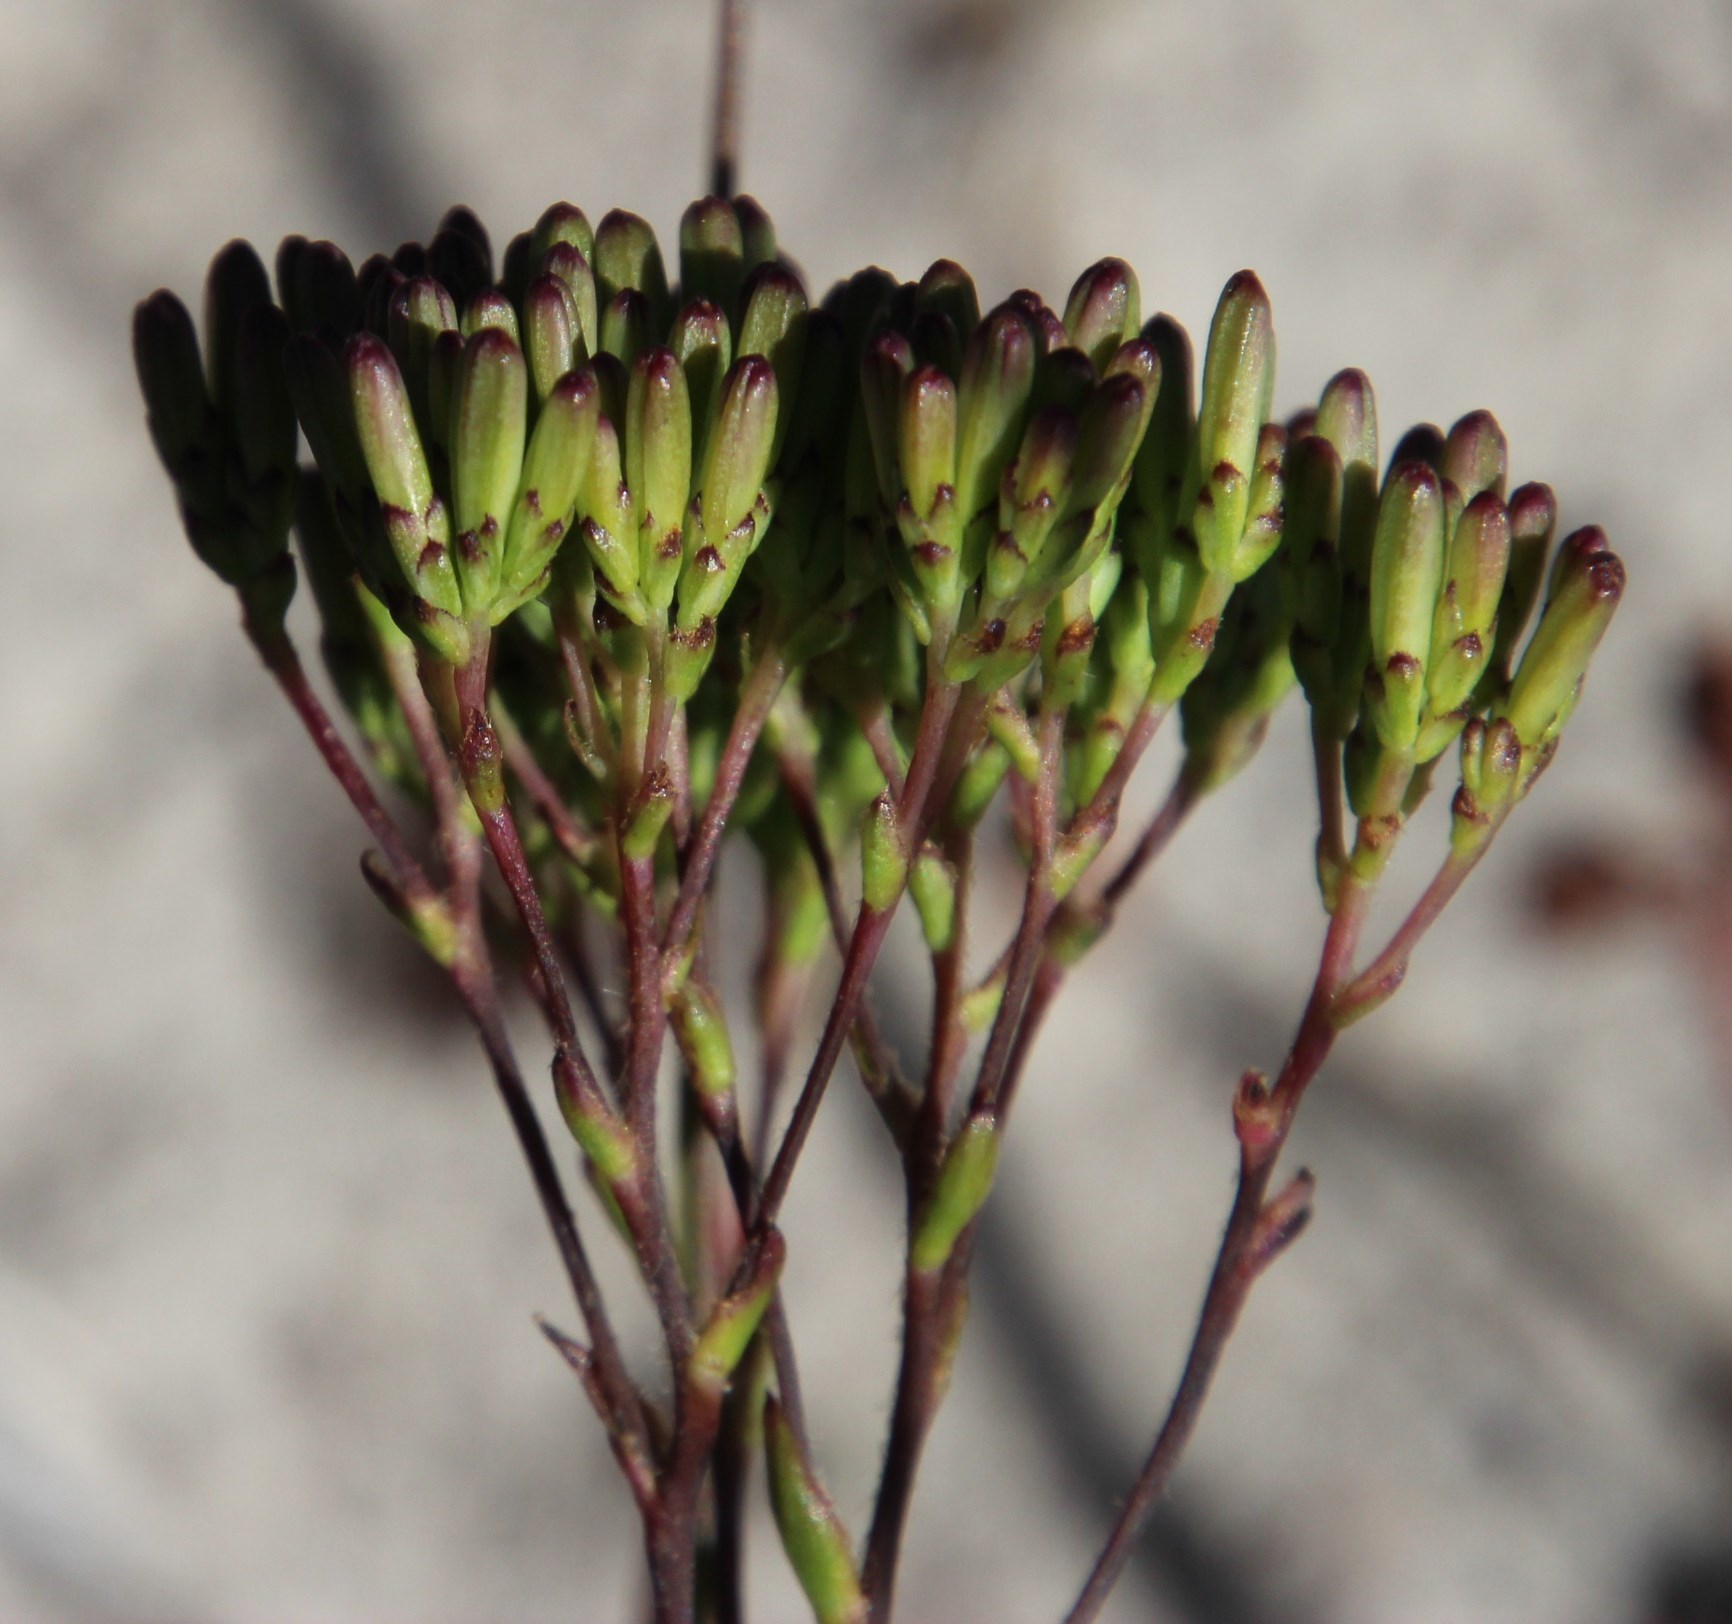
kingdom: Plantae
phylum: Tracheophyta
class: Magnoliopsida
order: Asterales
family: Asteraceae
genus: Corymbium
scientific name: Corymbium glabrum
